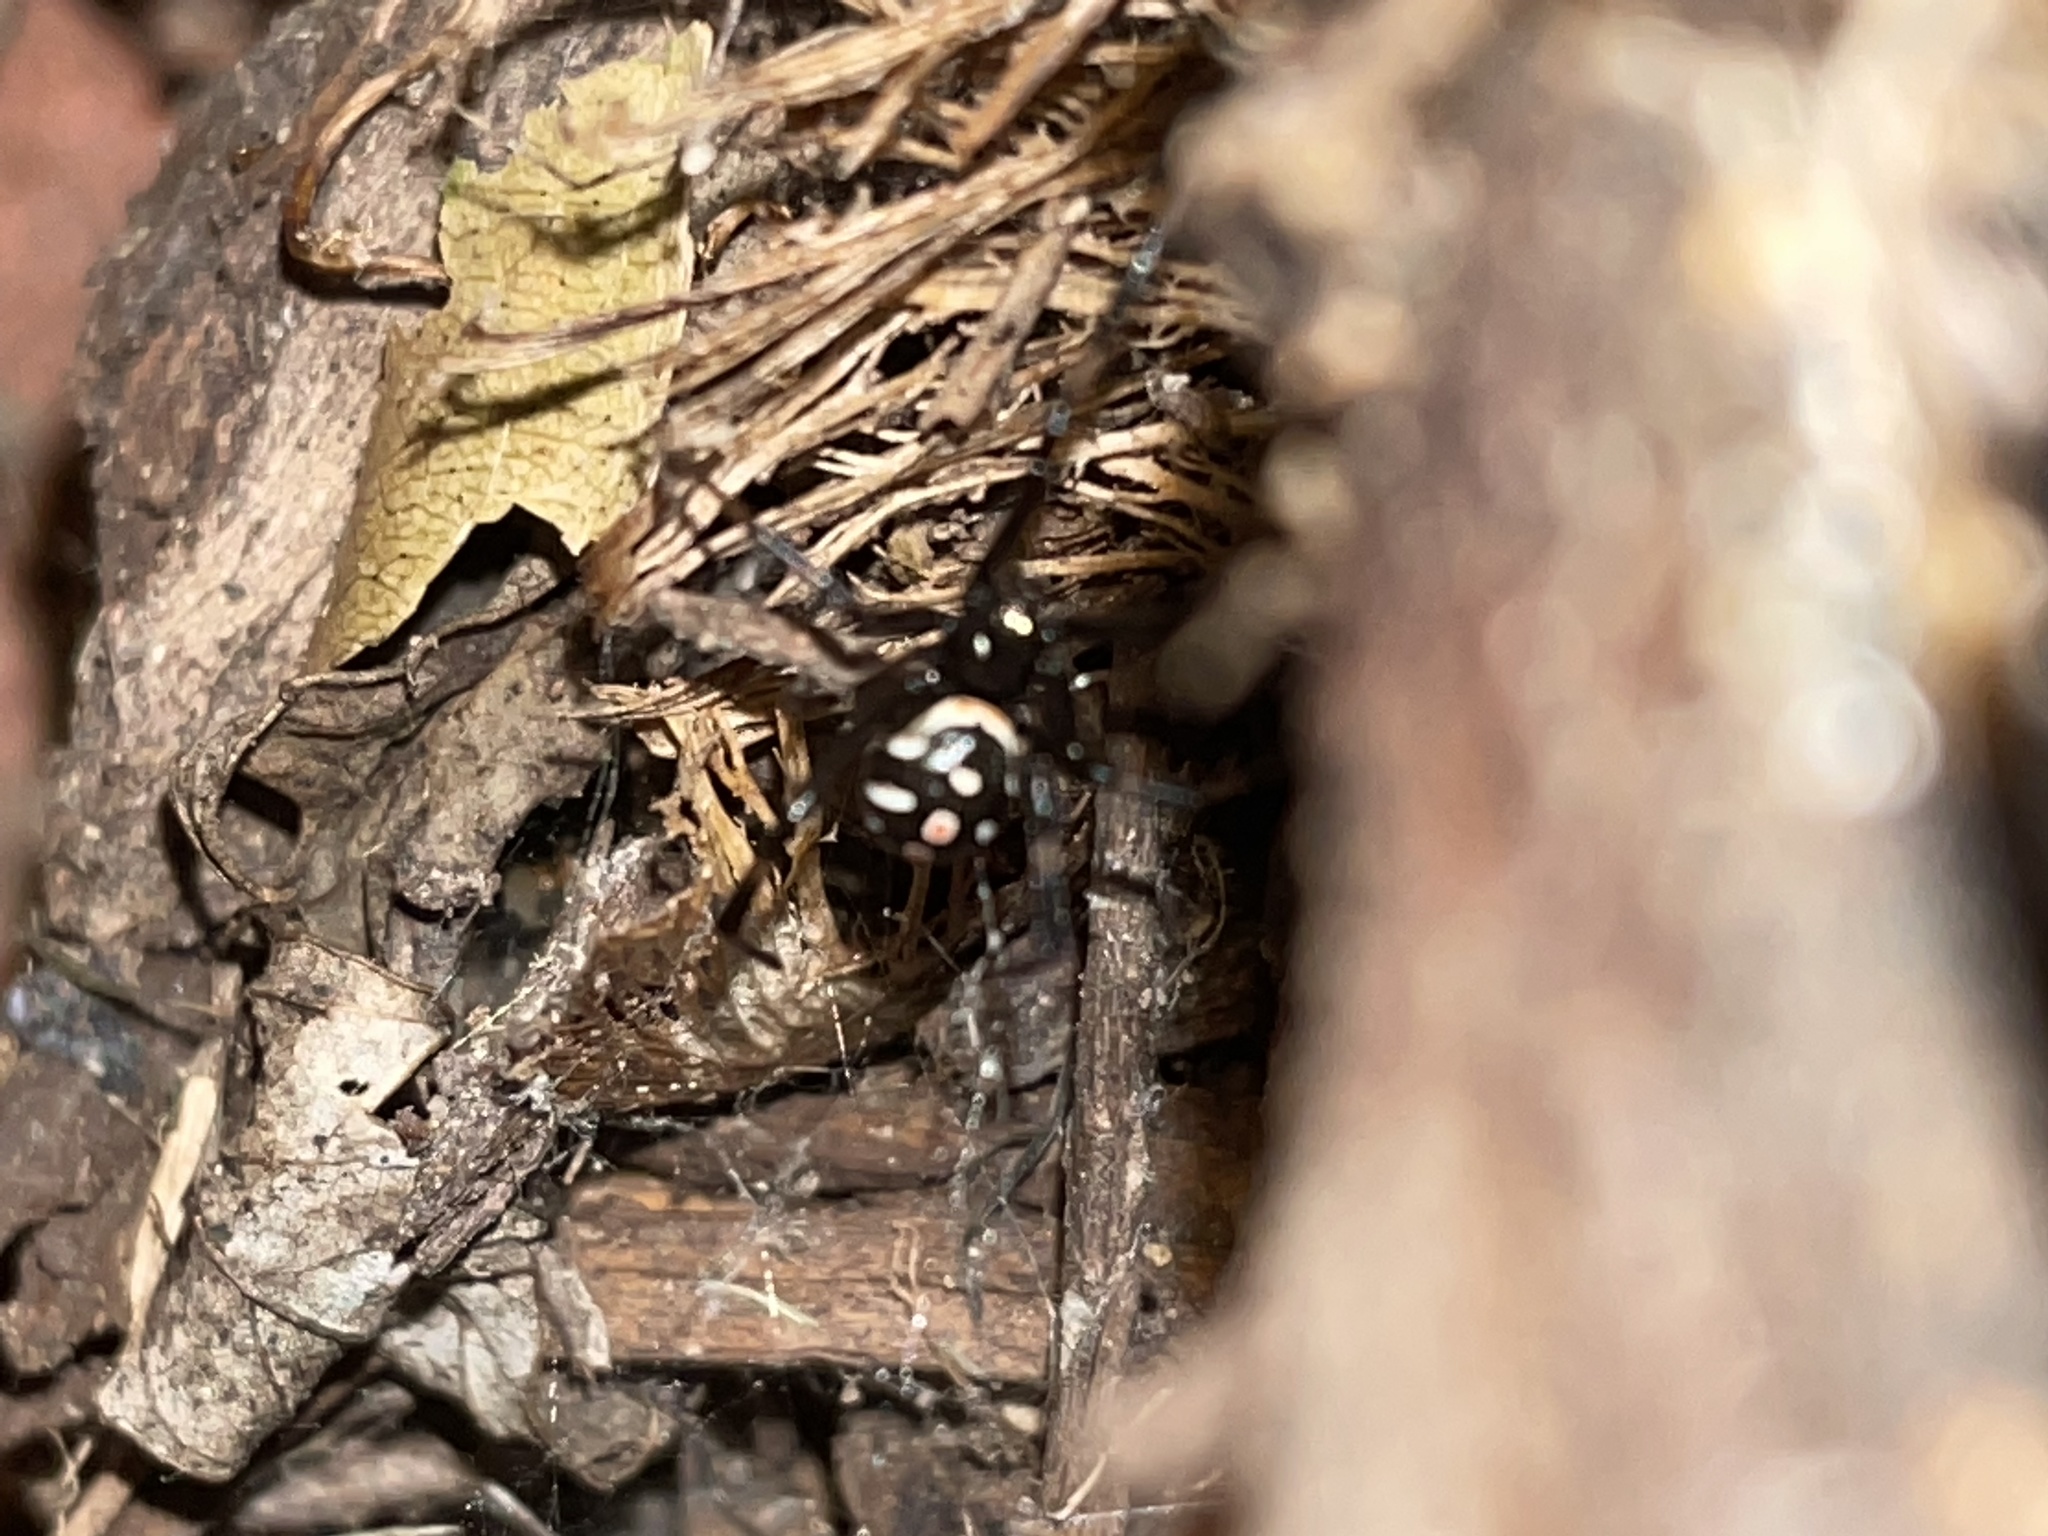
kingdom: Animalia
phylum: Arthropoda
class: Arachnida
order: Araneae
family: Theridiidae
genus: Latrodectus
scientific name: Latrodectus mactans
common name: Cobweb spiders
